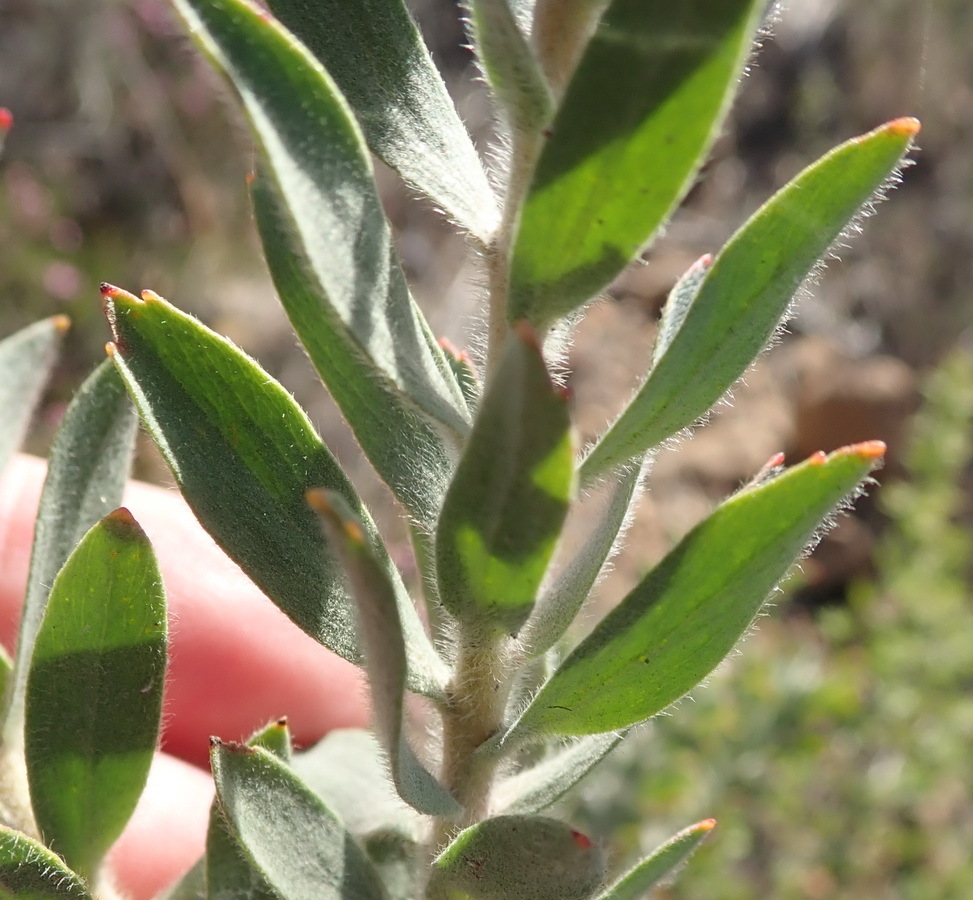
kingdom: Plantae
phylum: Tracheophyta
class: Magnoliopsida
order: Proteales
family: Proteaceae
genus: Leucospermum
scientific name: Leucospermum calligerum
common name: Arid pincushion
